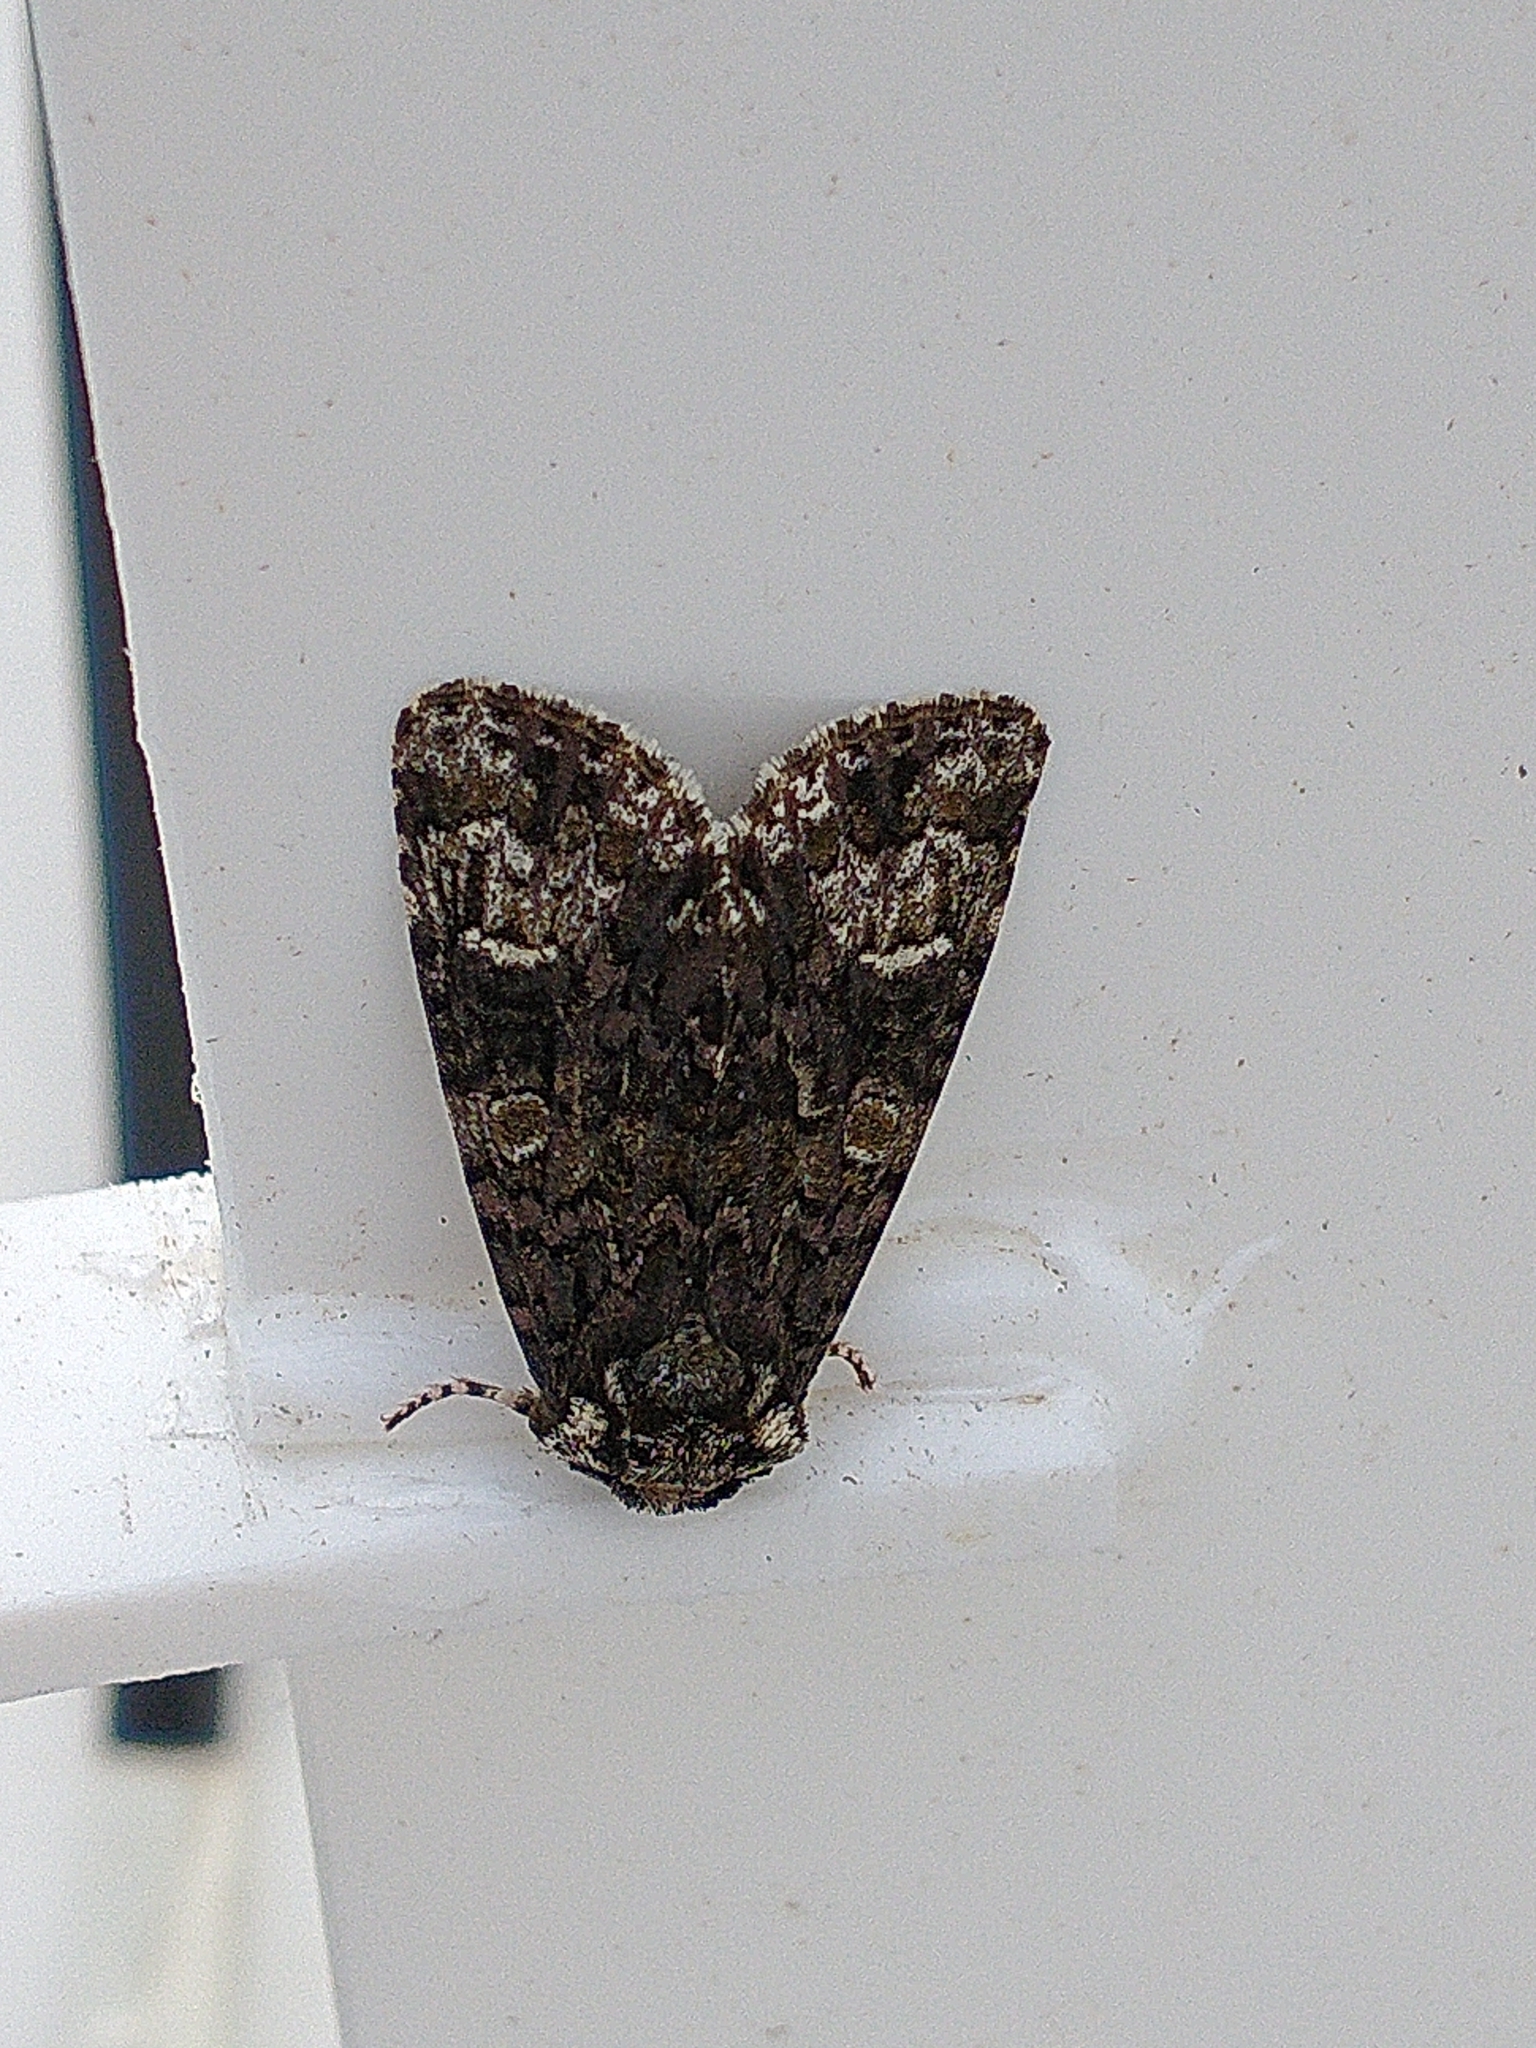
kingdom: Animalia
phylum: Arthropoda
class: Insecta
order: Lepidoptera
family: Noctuidae
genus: Craniophora
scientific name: Craniophora ligustri
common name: Coronet
